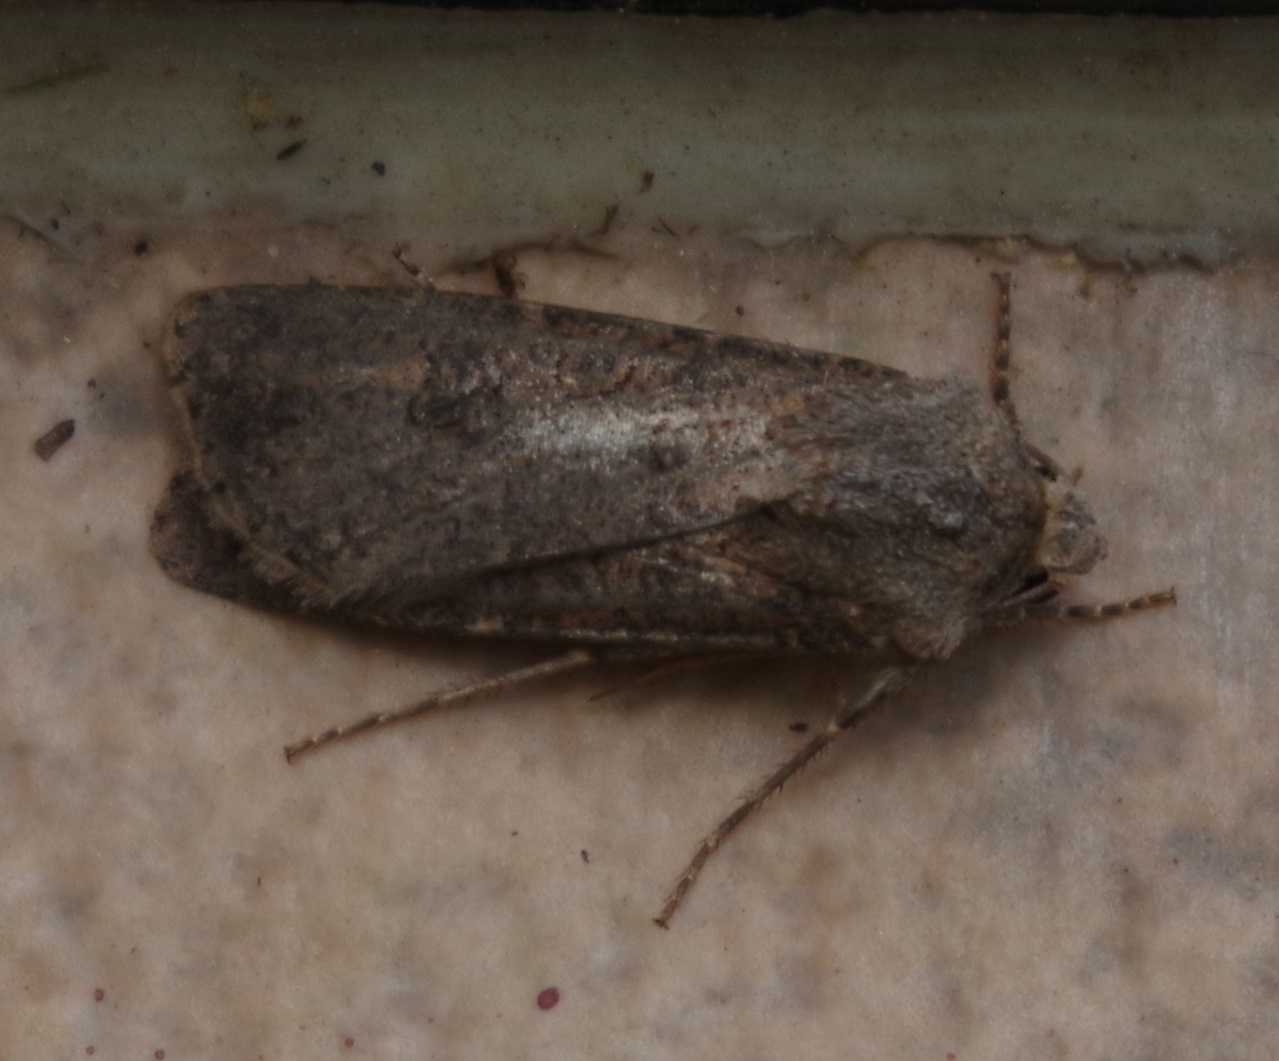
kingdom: Animalia
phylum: Arthropoda
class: Insecta
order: Lepidoptera
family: Noctuidae
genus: Agrotis
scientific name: Agrotis segetum
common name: Turnip moth
